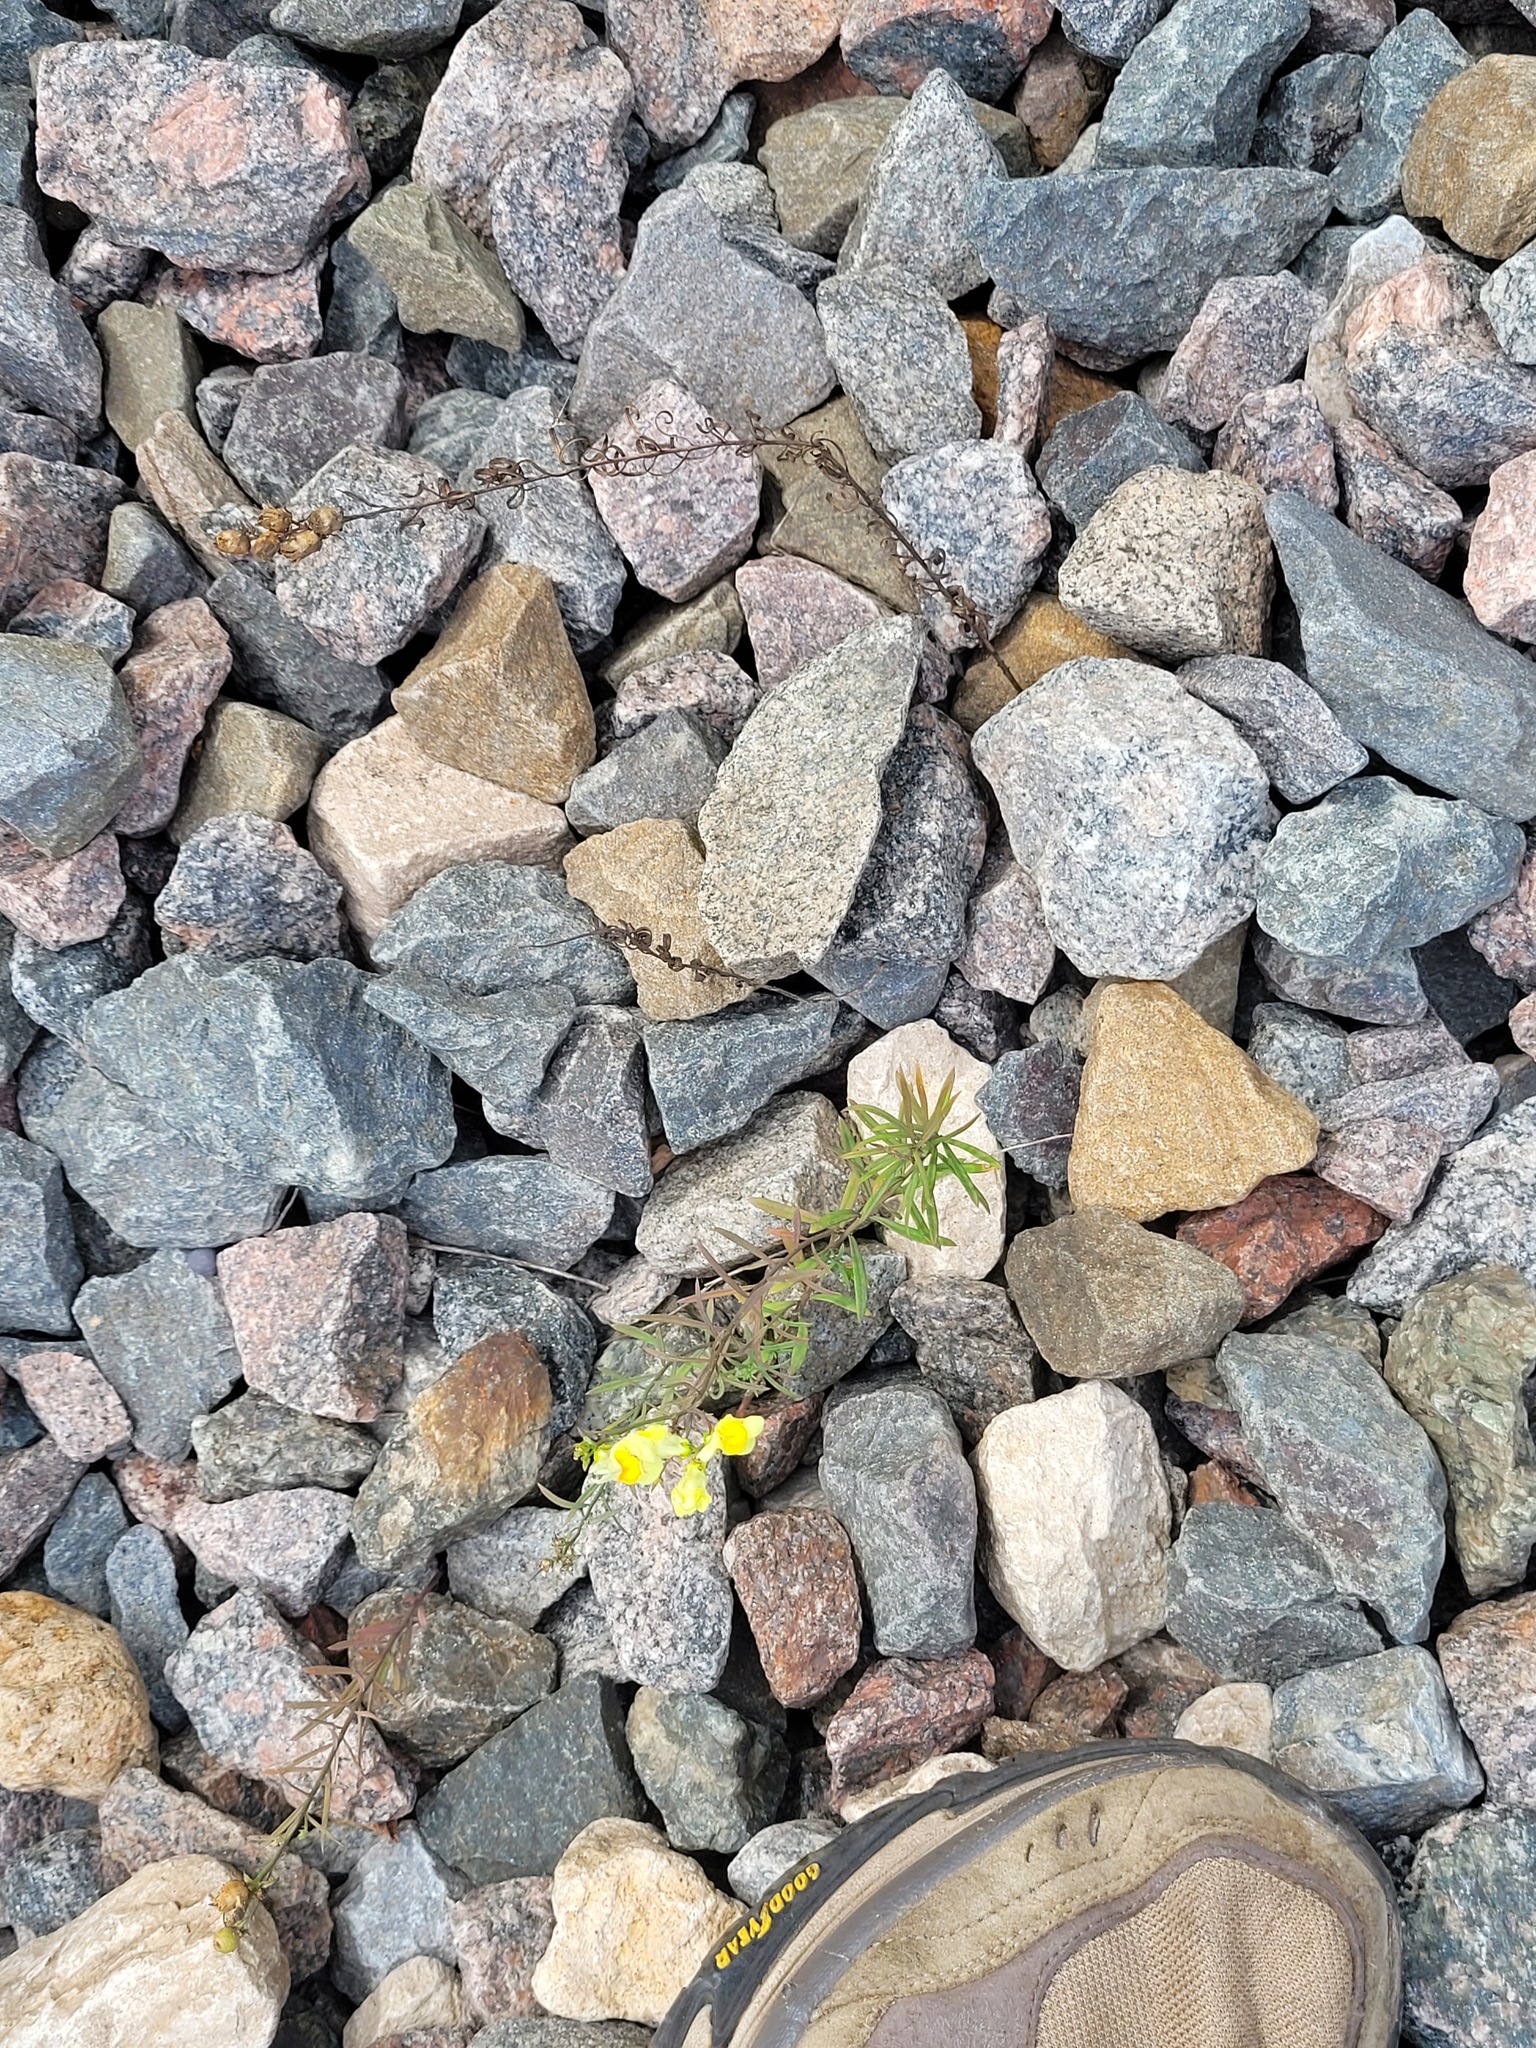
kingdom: Plantae
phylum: Tracheophyta
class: Magnoliopsida
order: Lamiales
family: Plantaginaceae
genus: Linaria
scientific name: Linaria vulgaris
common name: Butter and eggs
